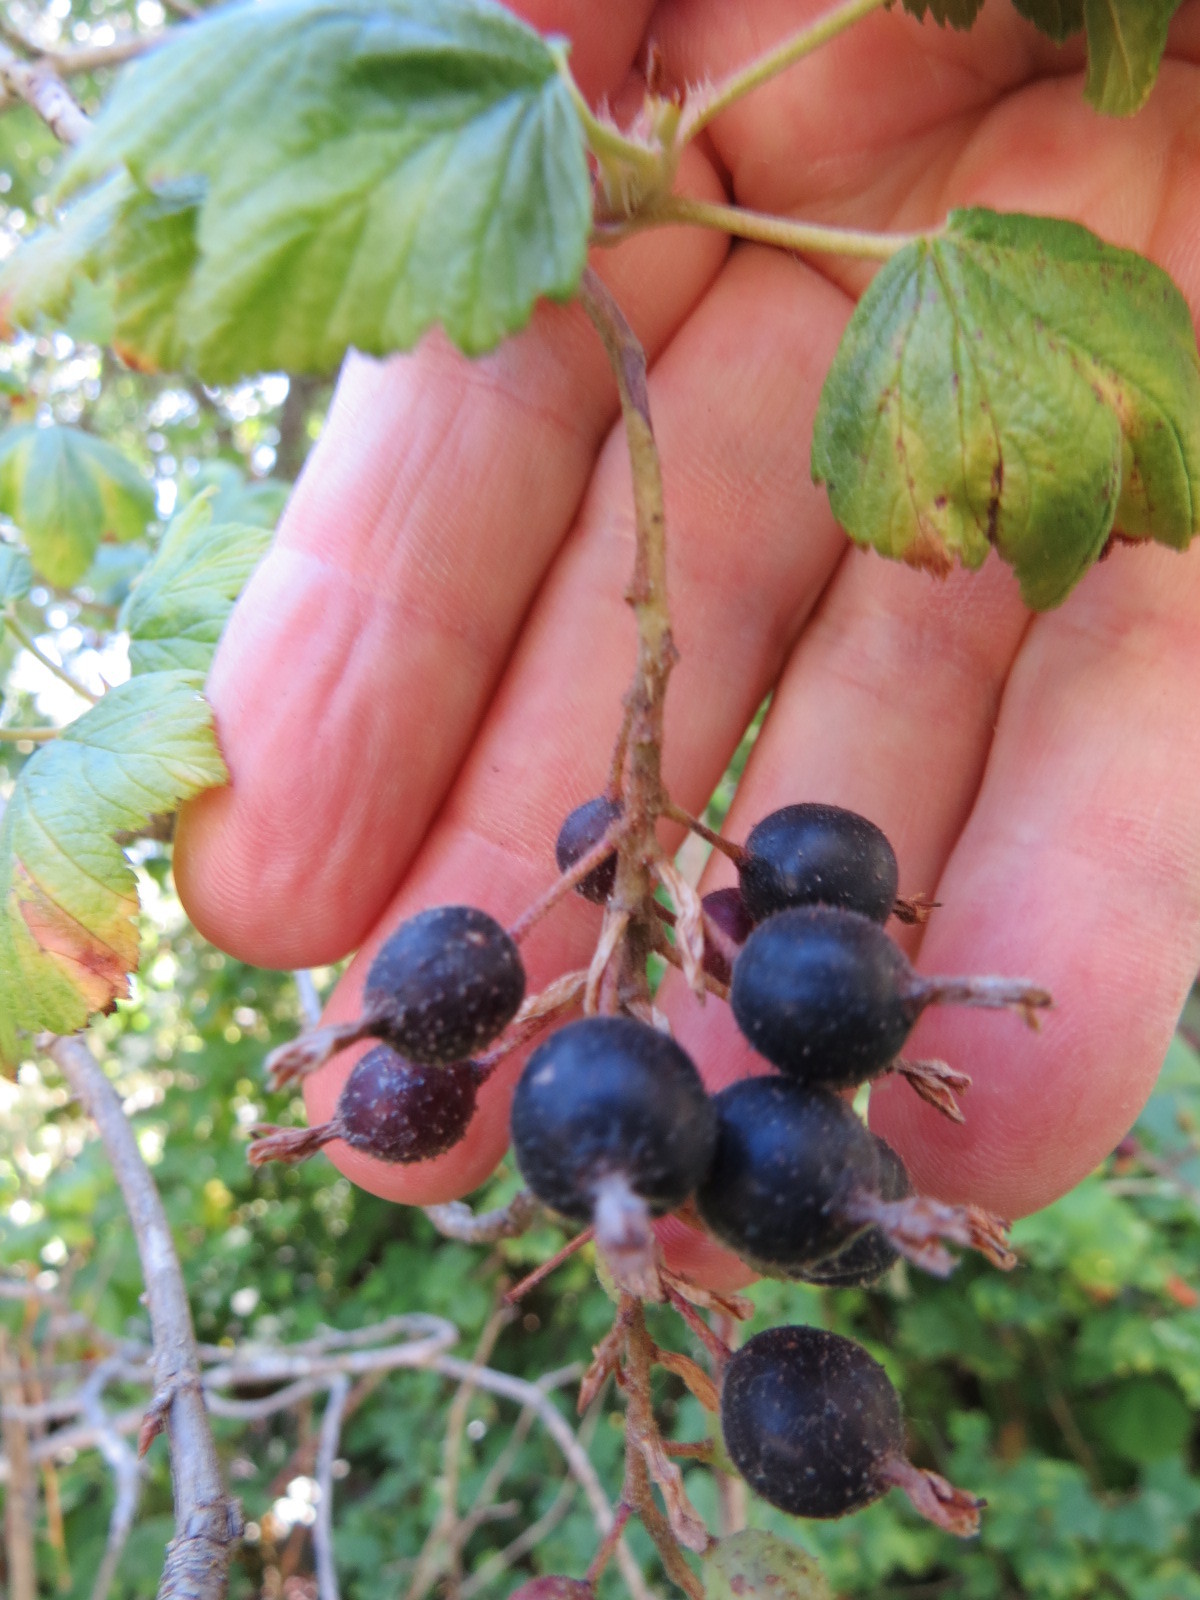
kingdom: Plantae
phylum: Tracheophyta
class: Magnoliopsida
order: Saxifragales
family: Grossulariaceae
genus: Ribes
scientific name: Ribes sanguineum
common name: Flowering currant
